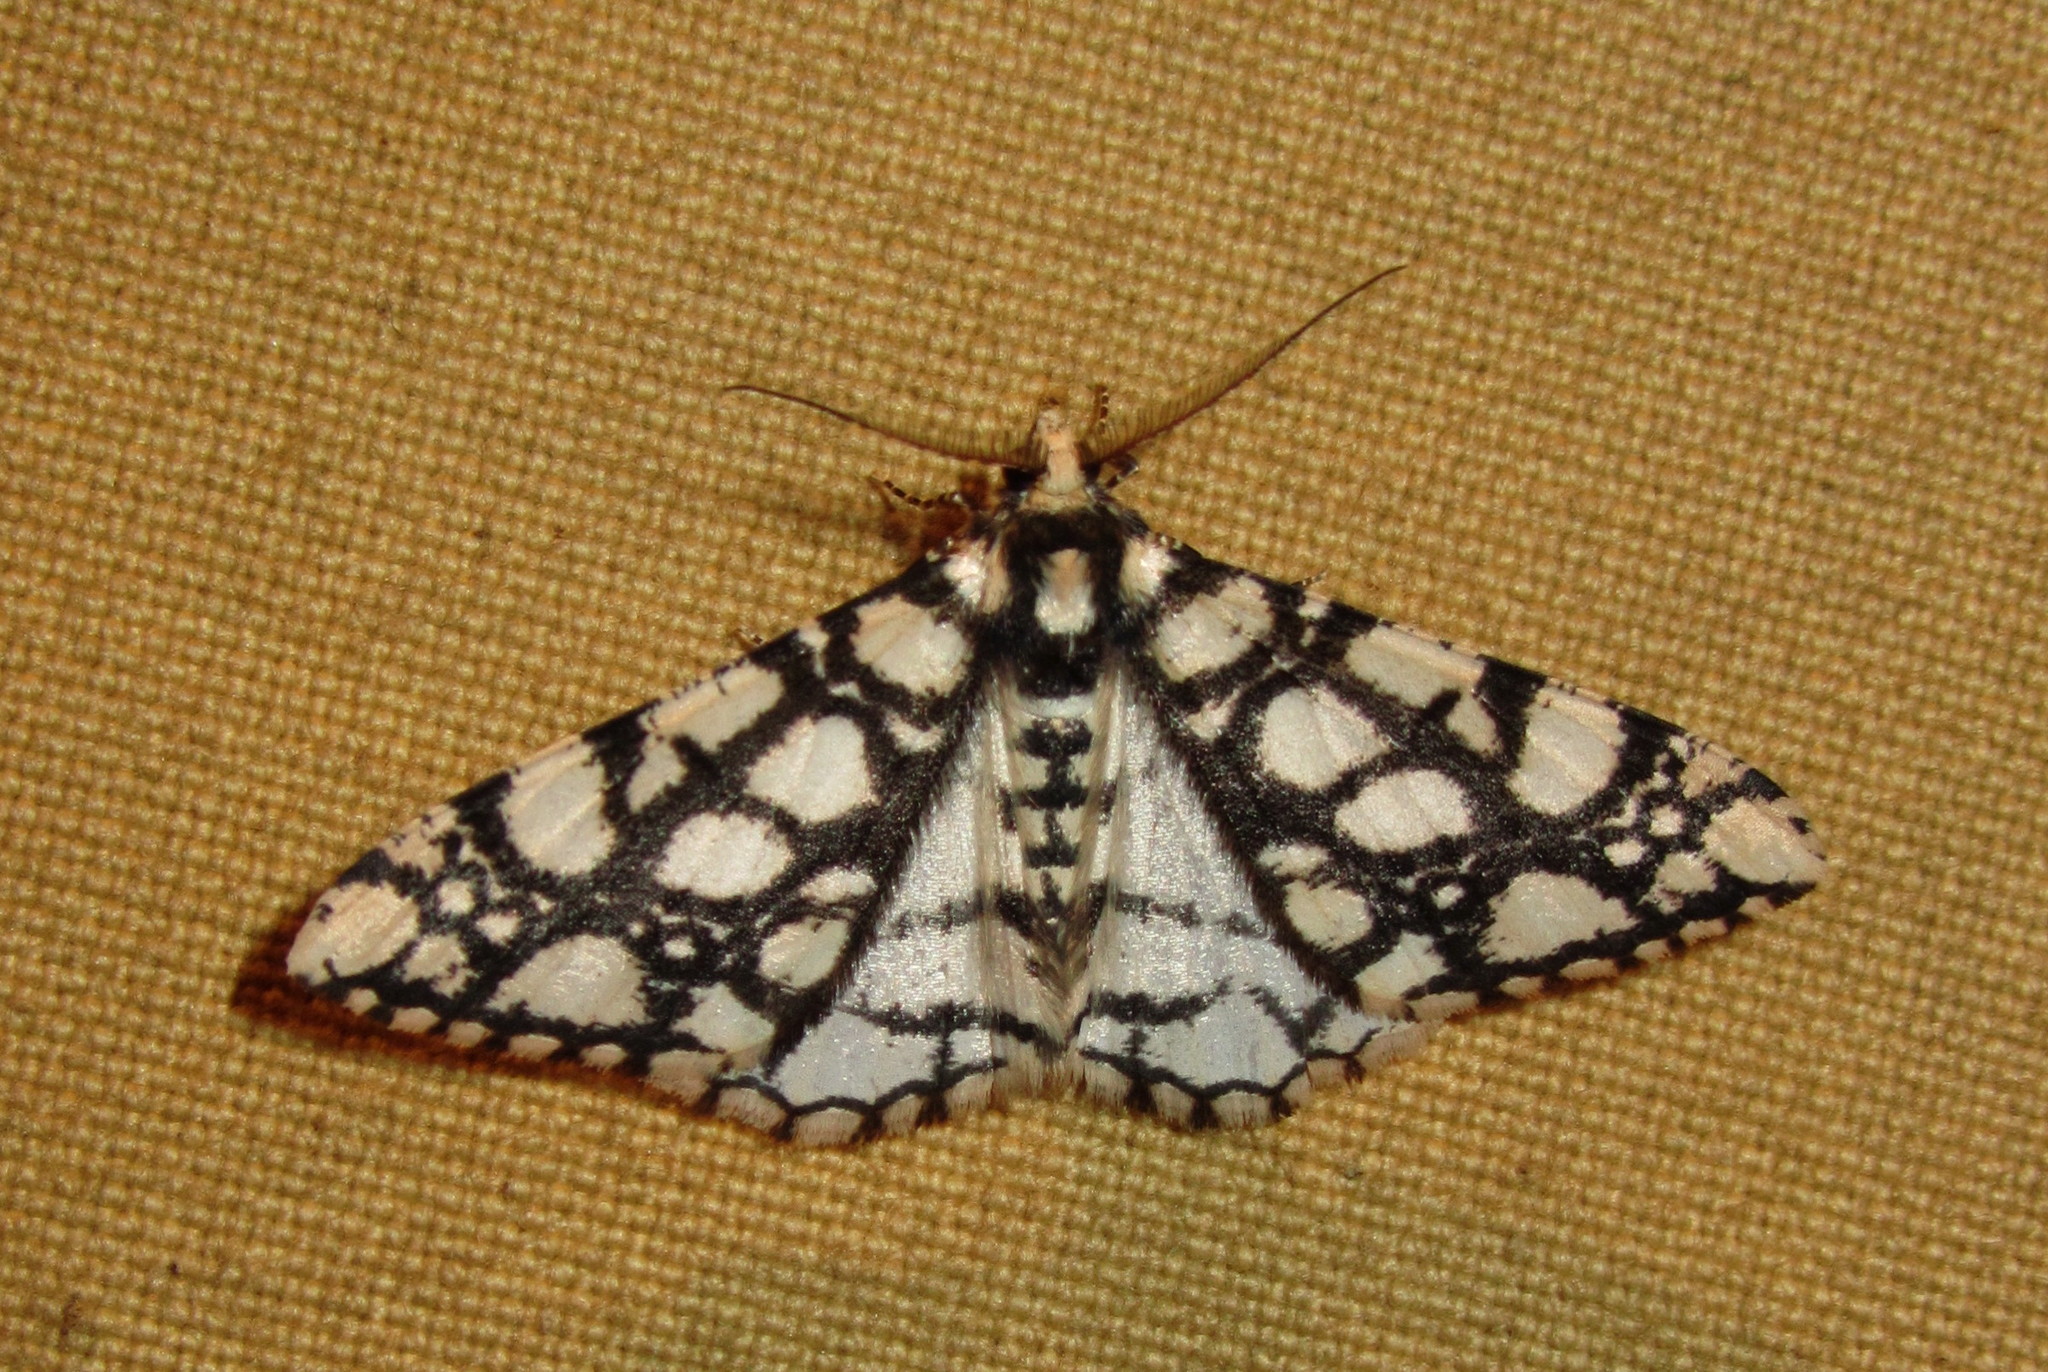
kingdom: Animalia
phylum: Arthropoda
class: Insecta
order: Lepidoptera
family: Geometridae
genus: Alcis
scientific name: Alcis maculata
